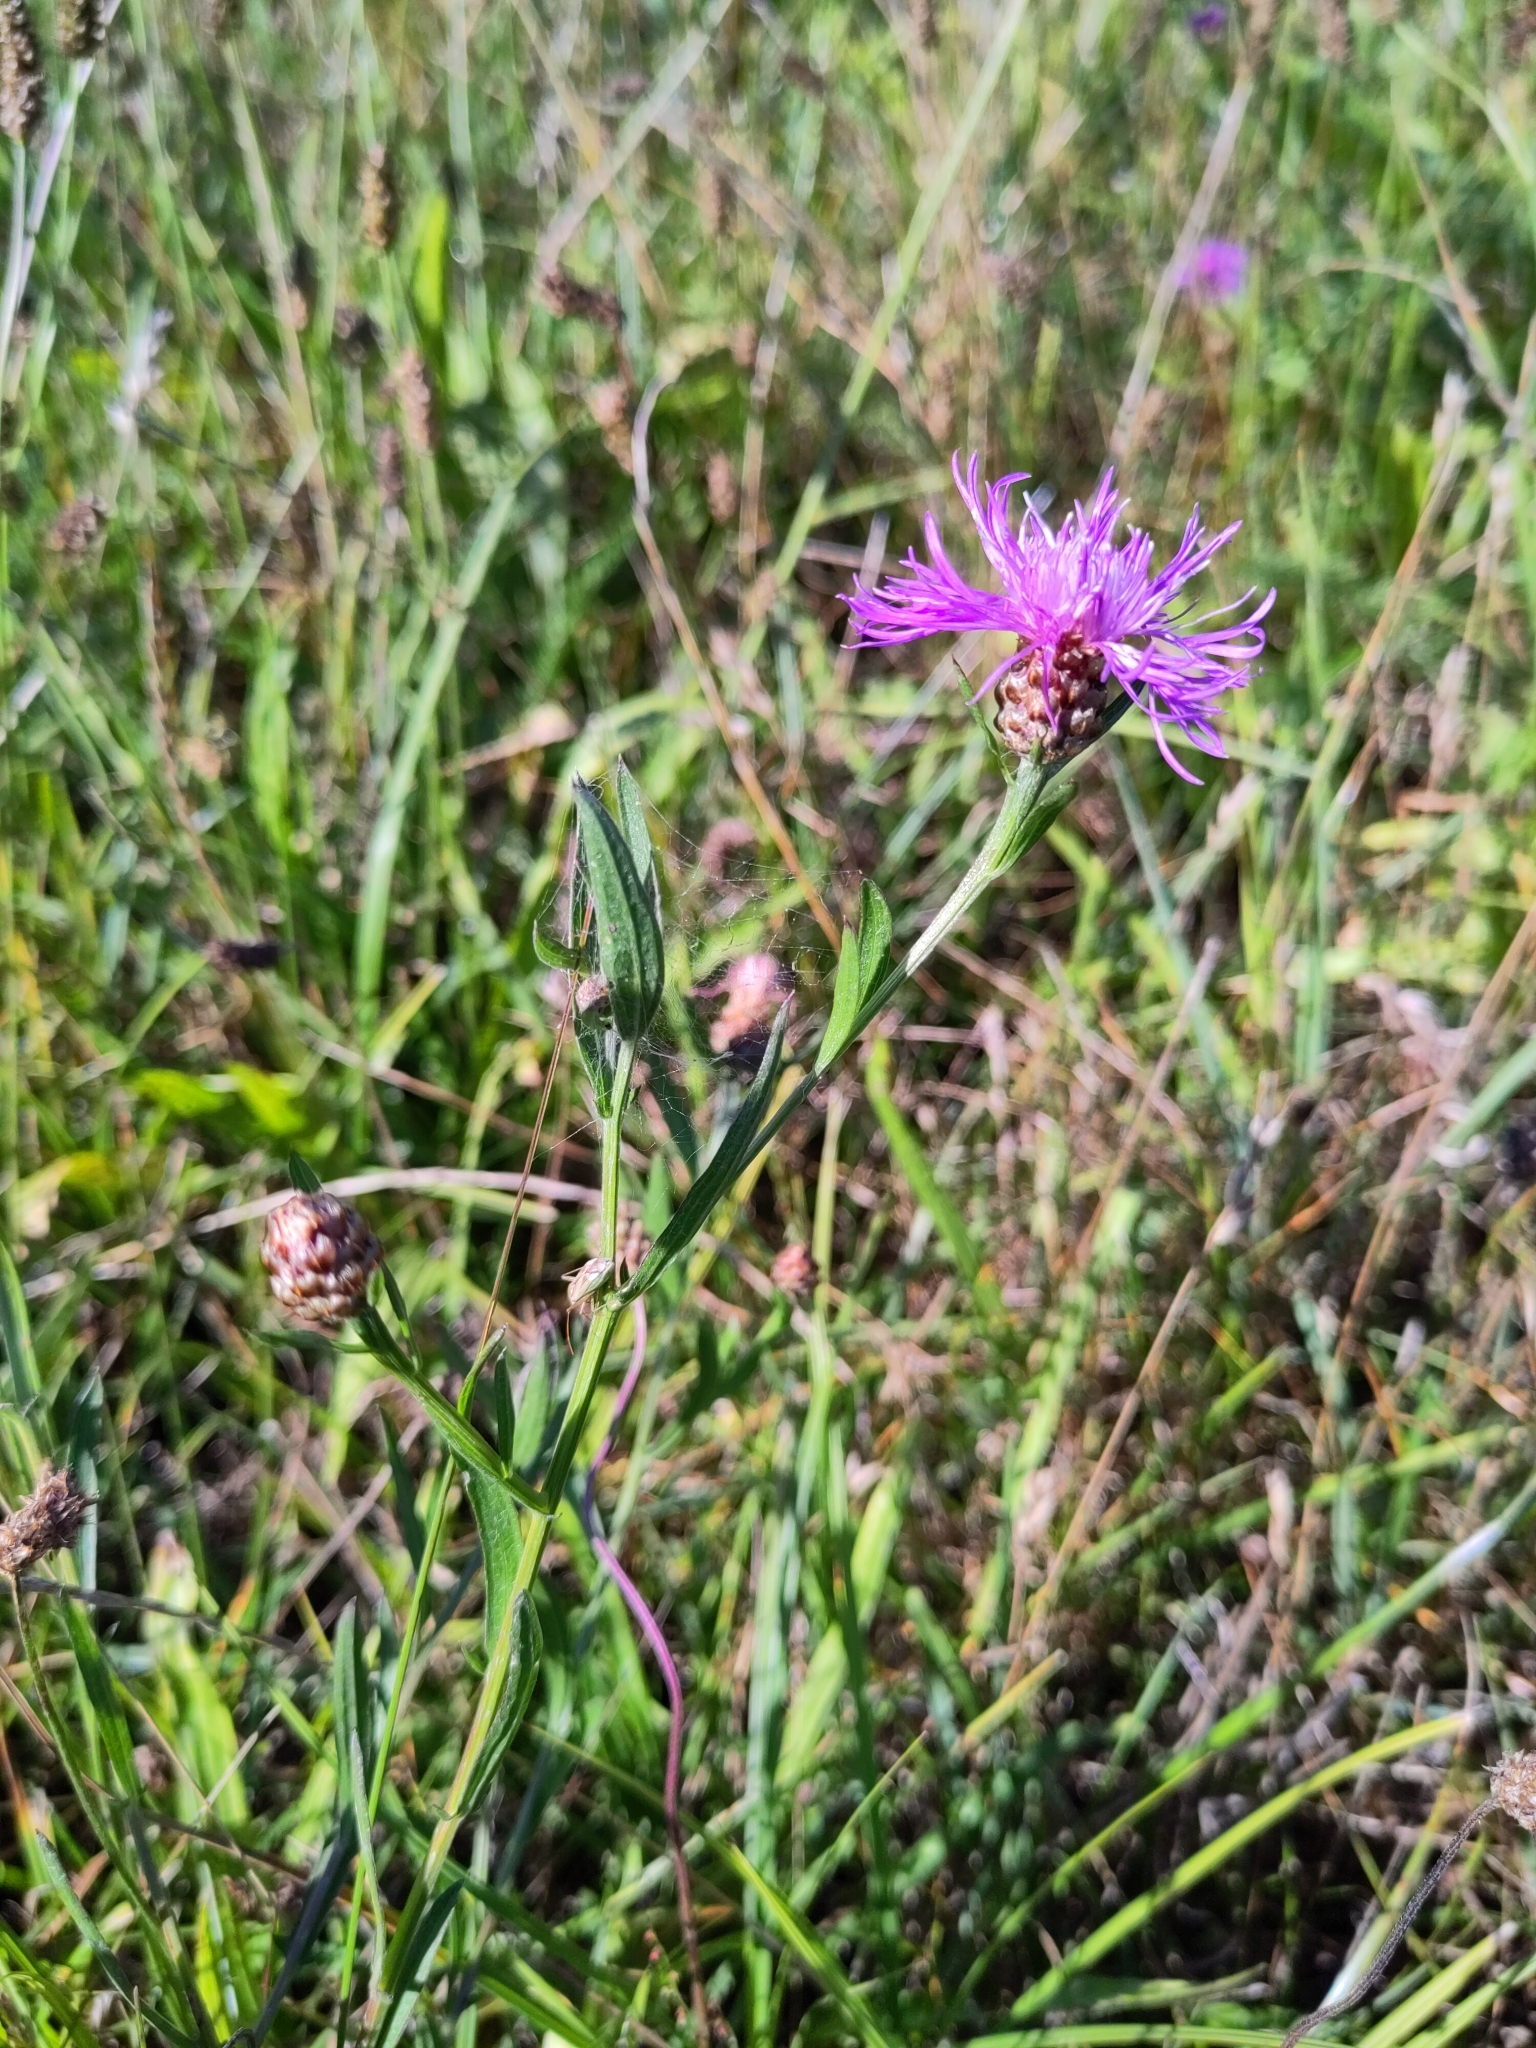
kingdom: Plantae
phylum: Tracheophyta
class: Magnoliopsida
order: Asterales
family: Asteraceae
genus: Centaurea
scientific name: Centaurea jacea
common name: Brown knapweed
